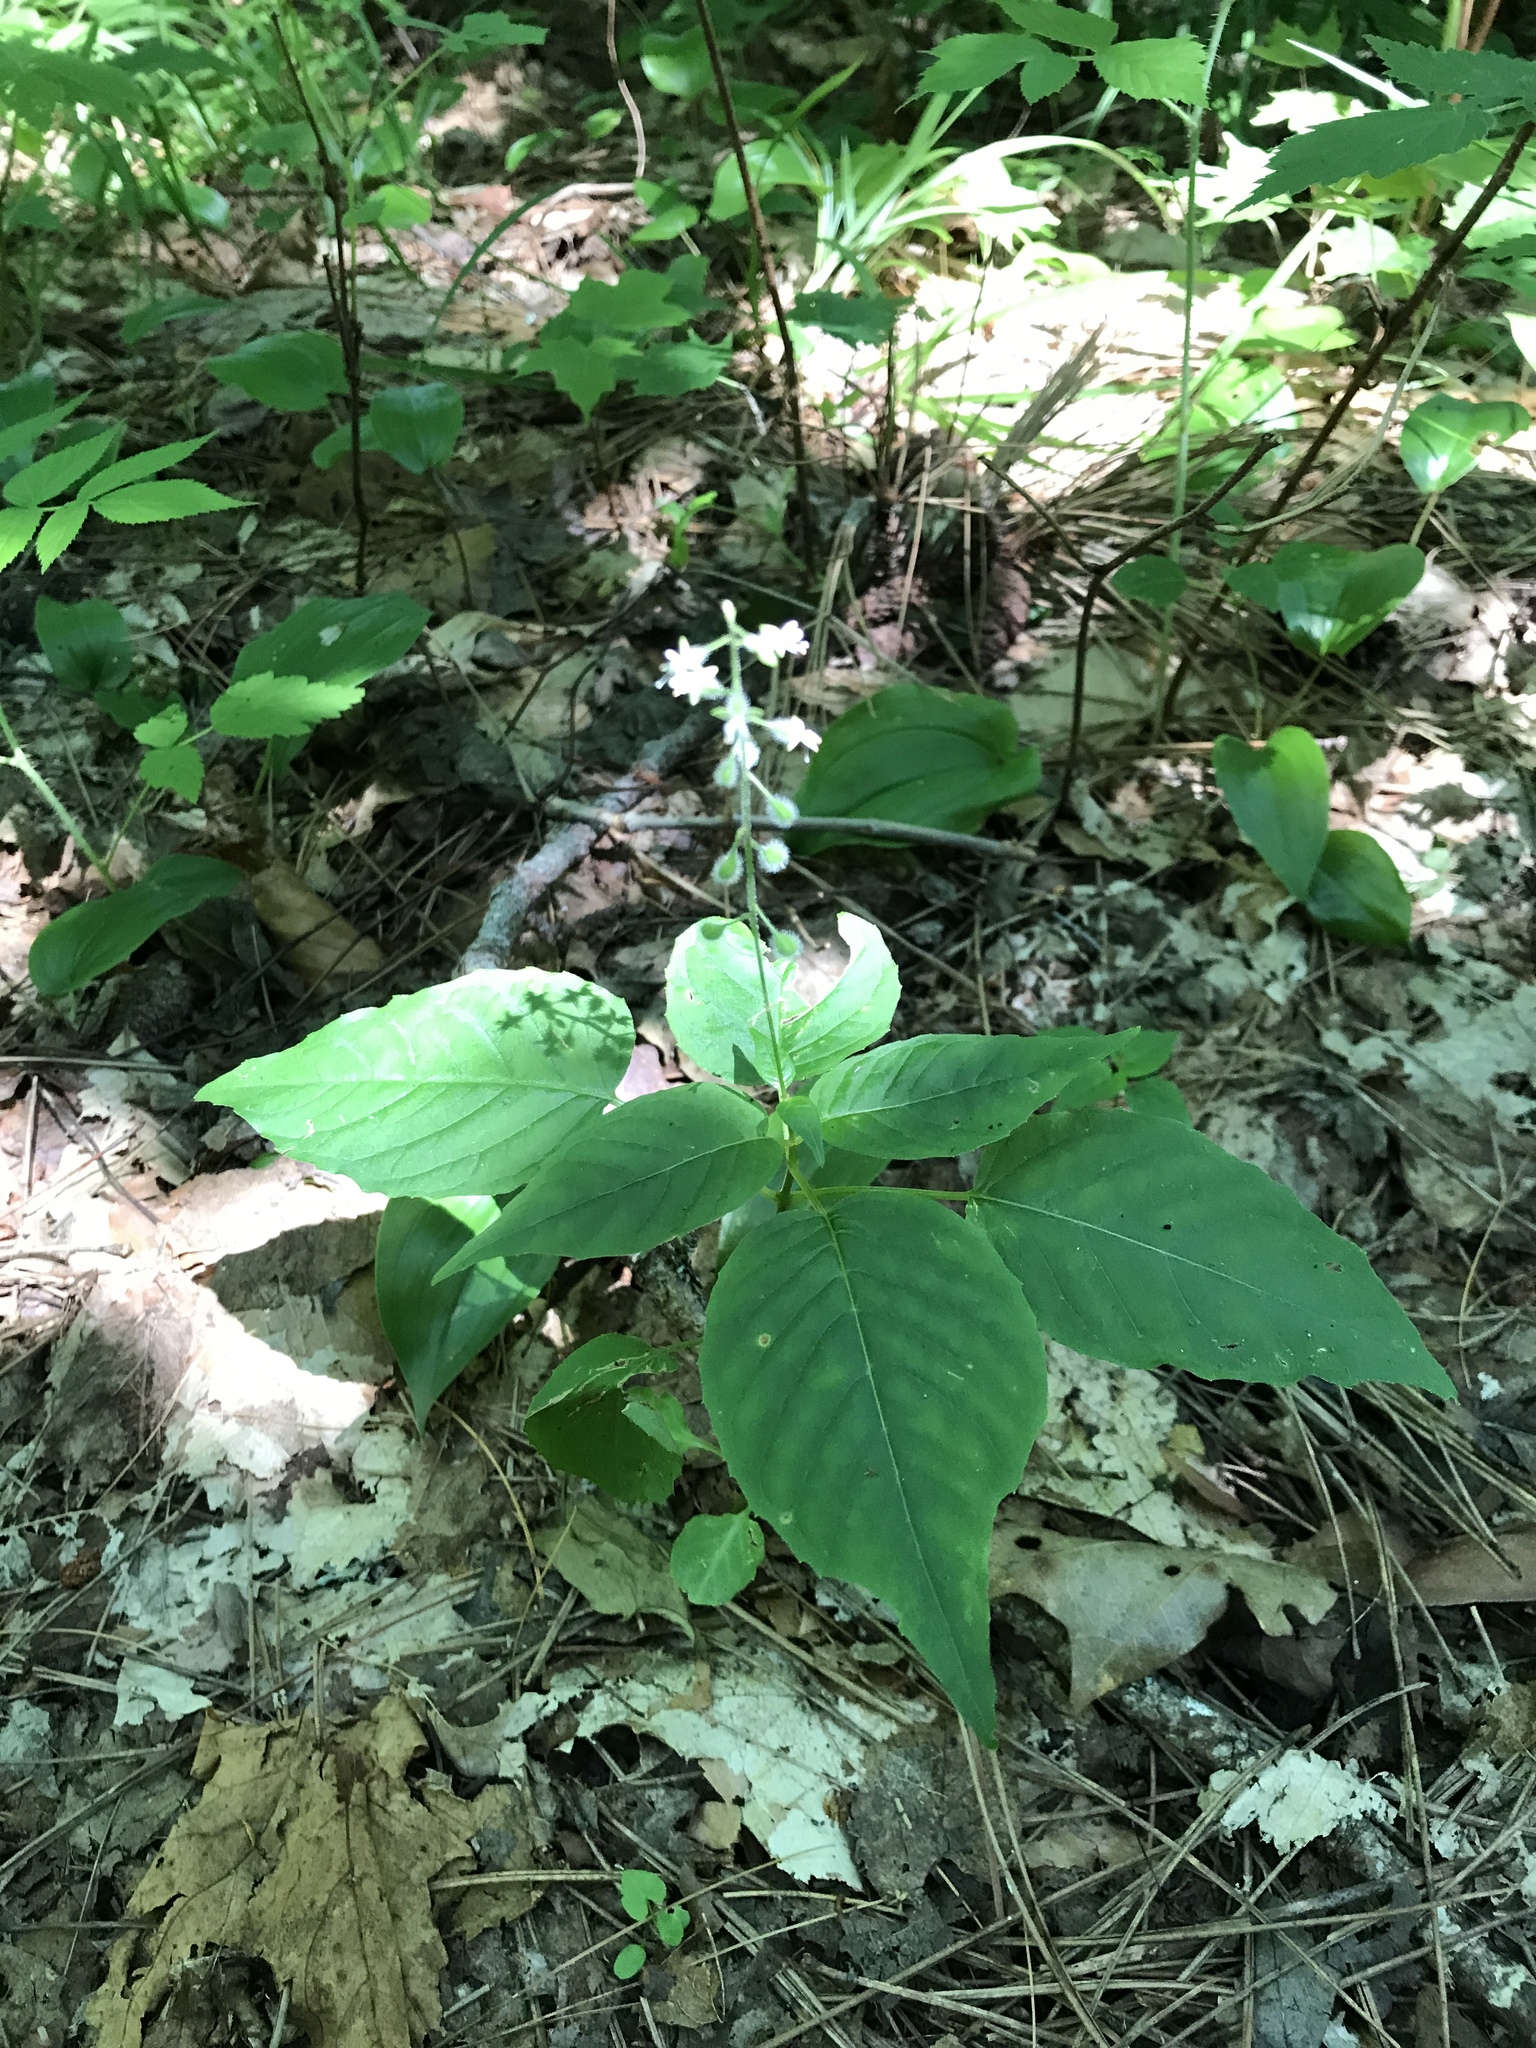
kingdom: Plantae
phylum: Tracheophyta
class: Magnoliopsida
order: Myrtales
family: Onagraceae
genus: Circaea
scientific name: Circaea canadensis
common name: Broad-leaved enchanter's nightshade
